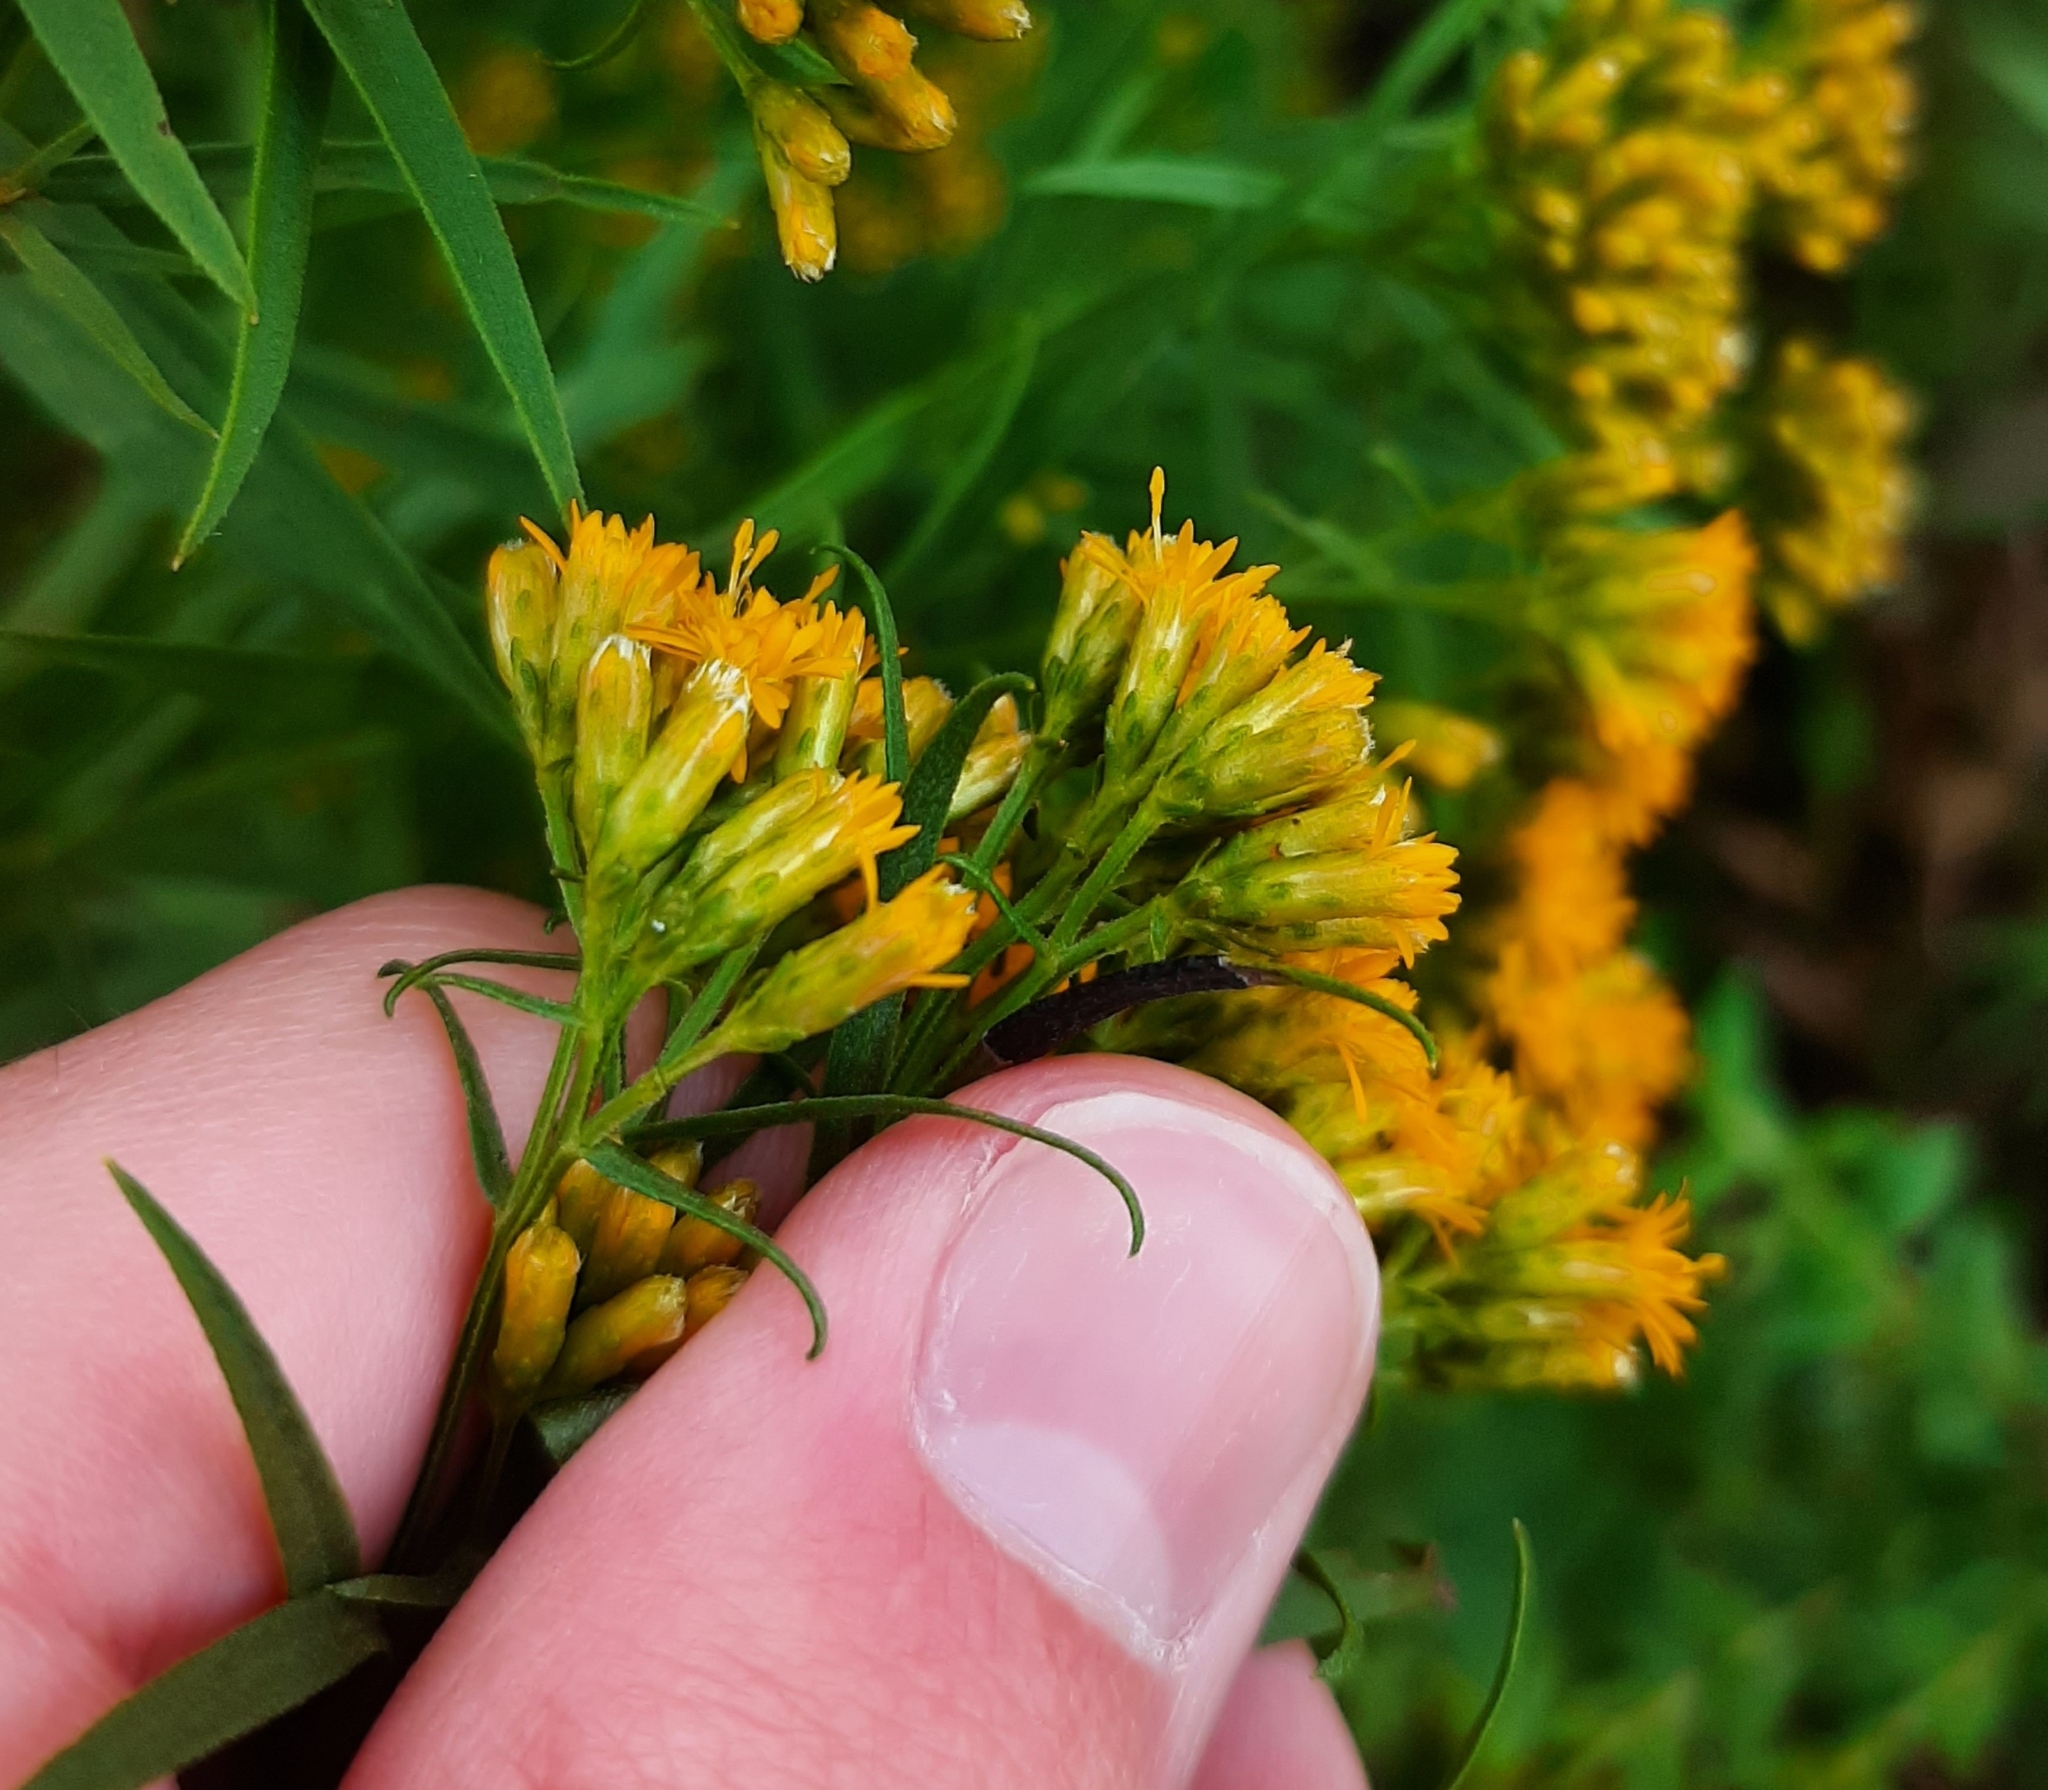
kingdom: Plantae
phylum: Tracheophyta
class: Magnoliopsida
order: Asterales
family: Asteraceae
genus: Euthamia
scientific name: Euthamia graminifolia
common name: Common goldentop
